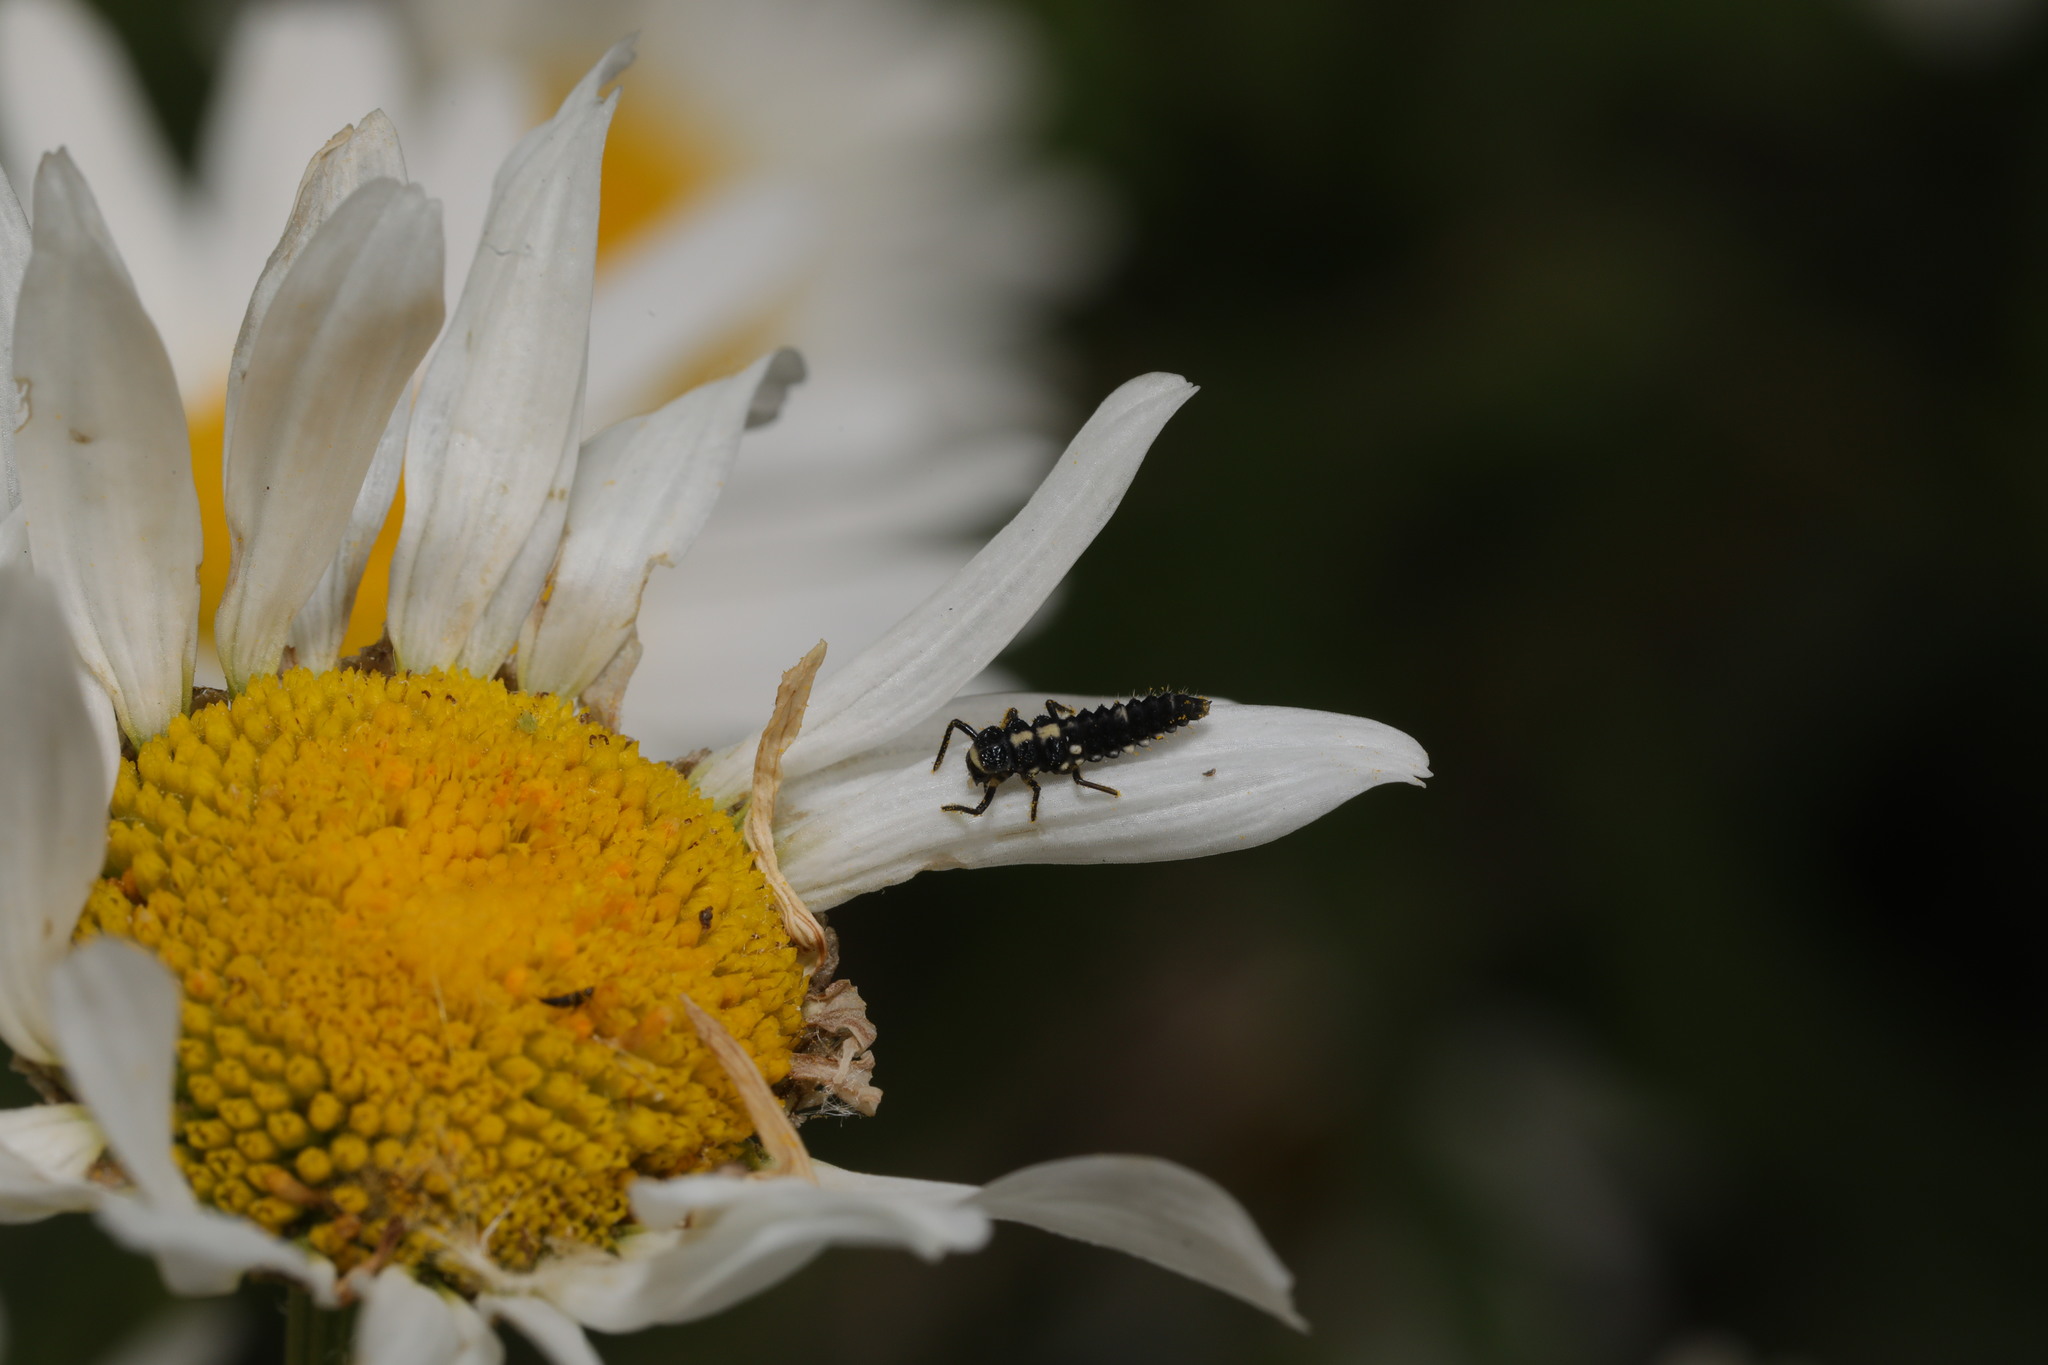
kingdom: Animalia
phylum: Arthropoda
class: Insecta
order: Coleoptera
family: Coccinellidae
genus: Propylaea
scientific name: Propylaea quatuordecimpunctata
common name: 14-spotted ladybird beetle
